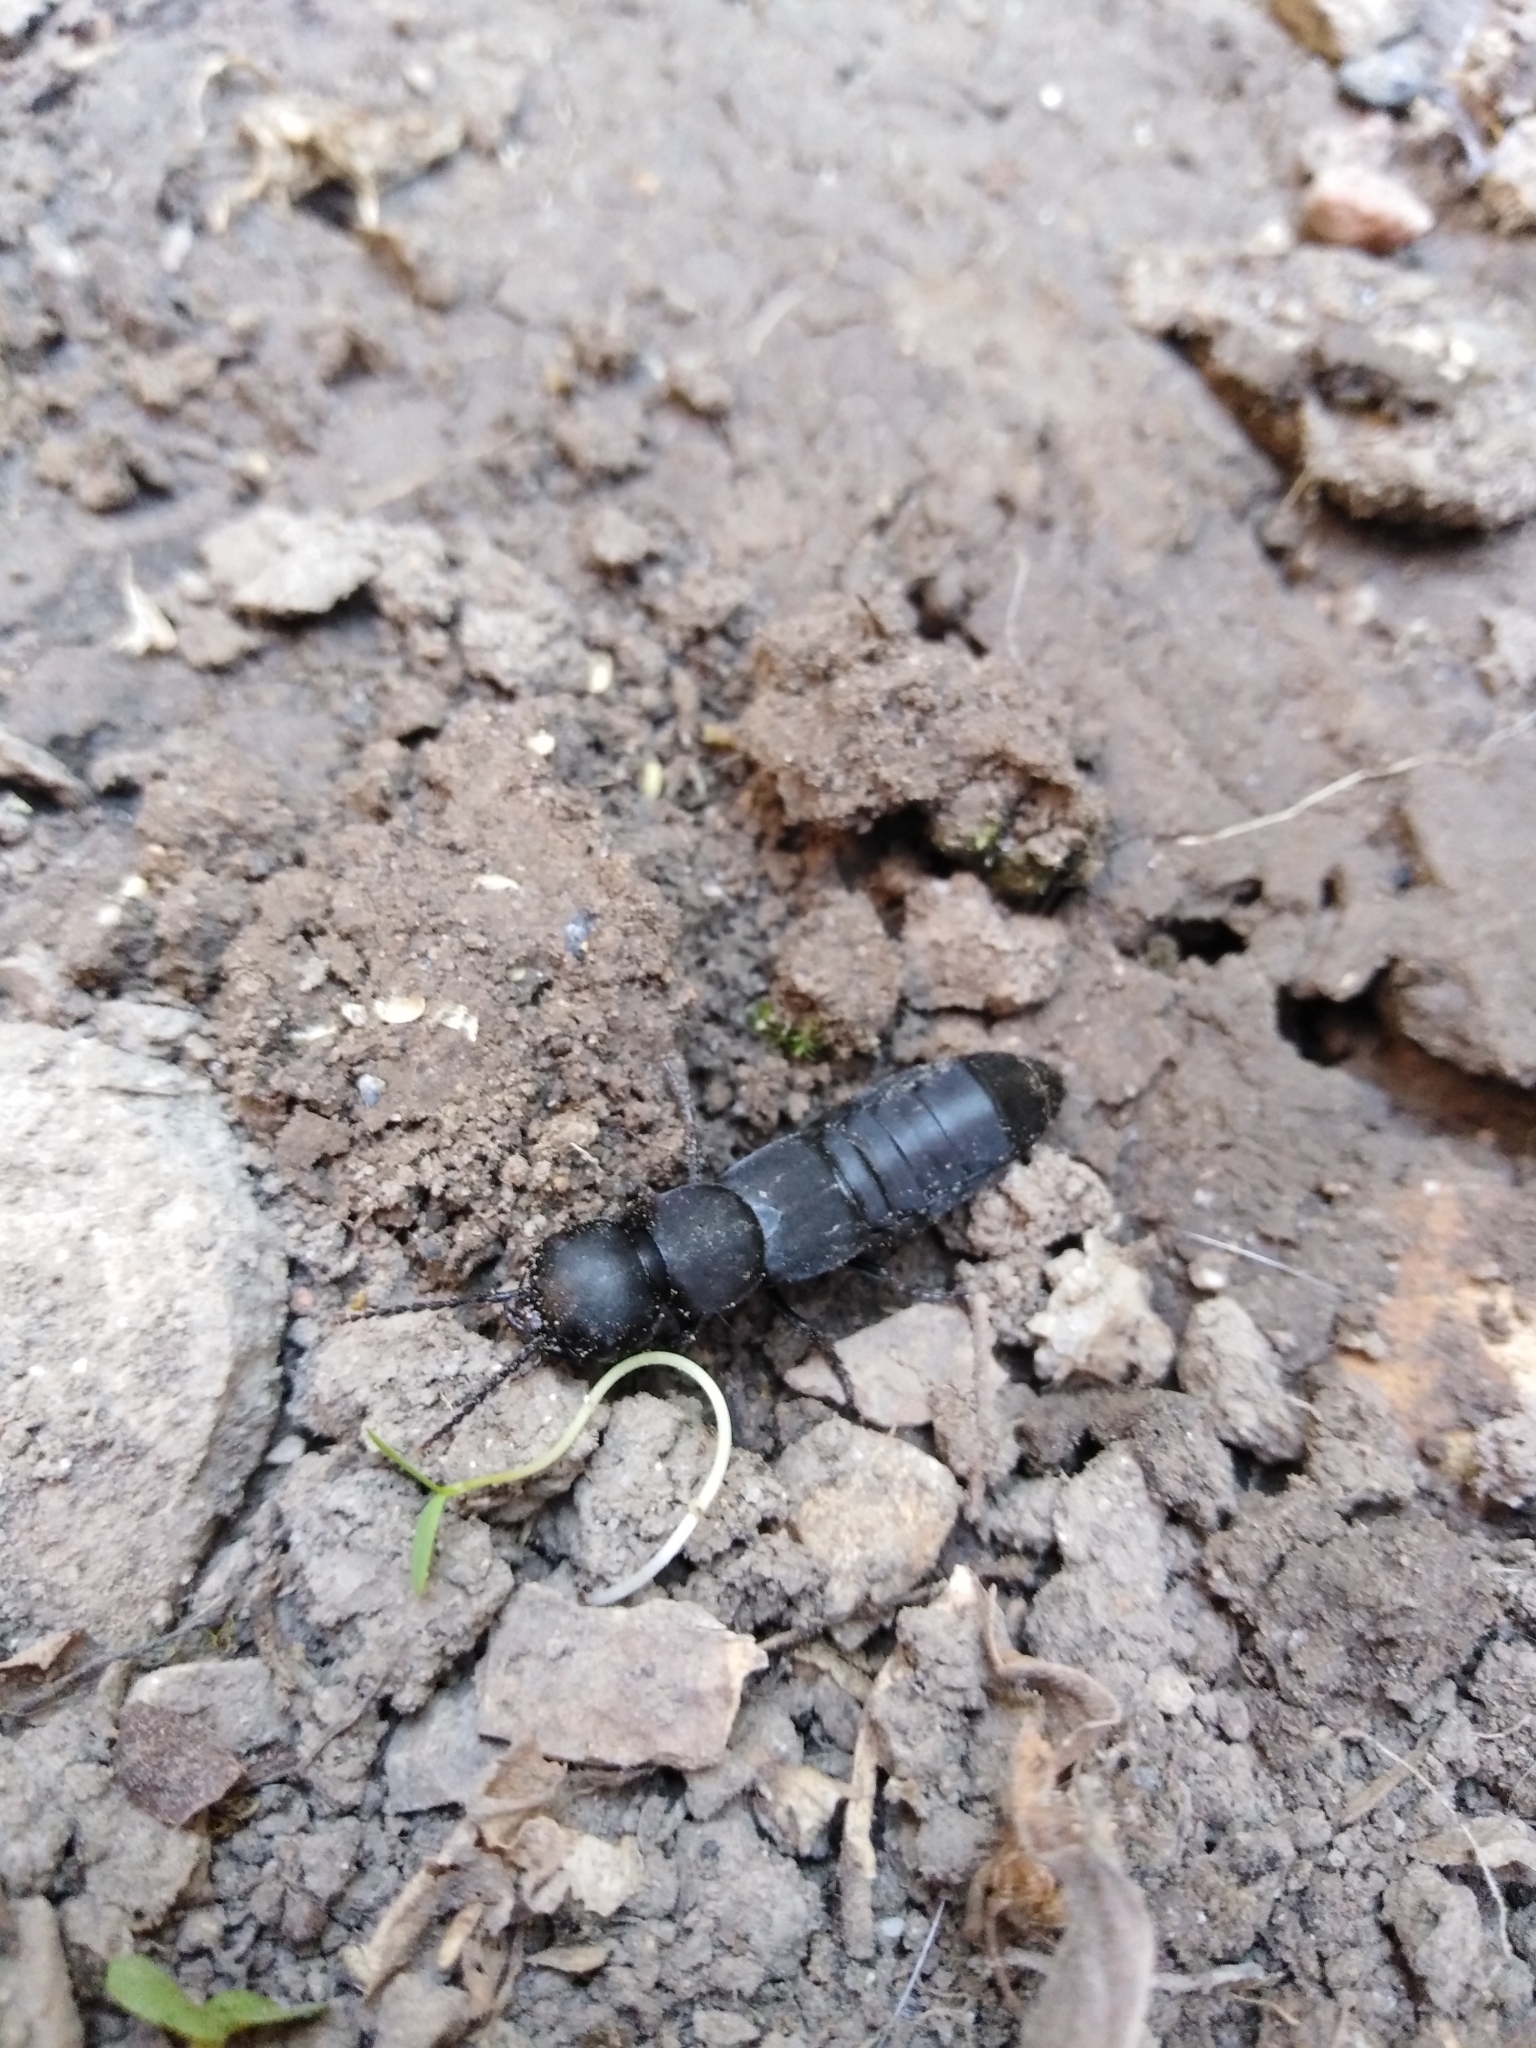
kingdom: Animalia
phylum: Arthropoda
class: Insecta
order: Coleoptera
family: Staphylinidae
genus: Ocypus
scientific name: Ocypus olens
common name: Devil's coach-horse
